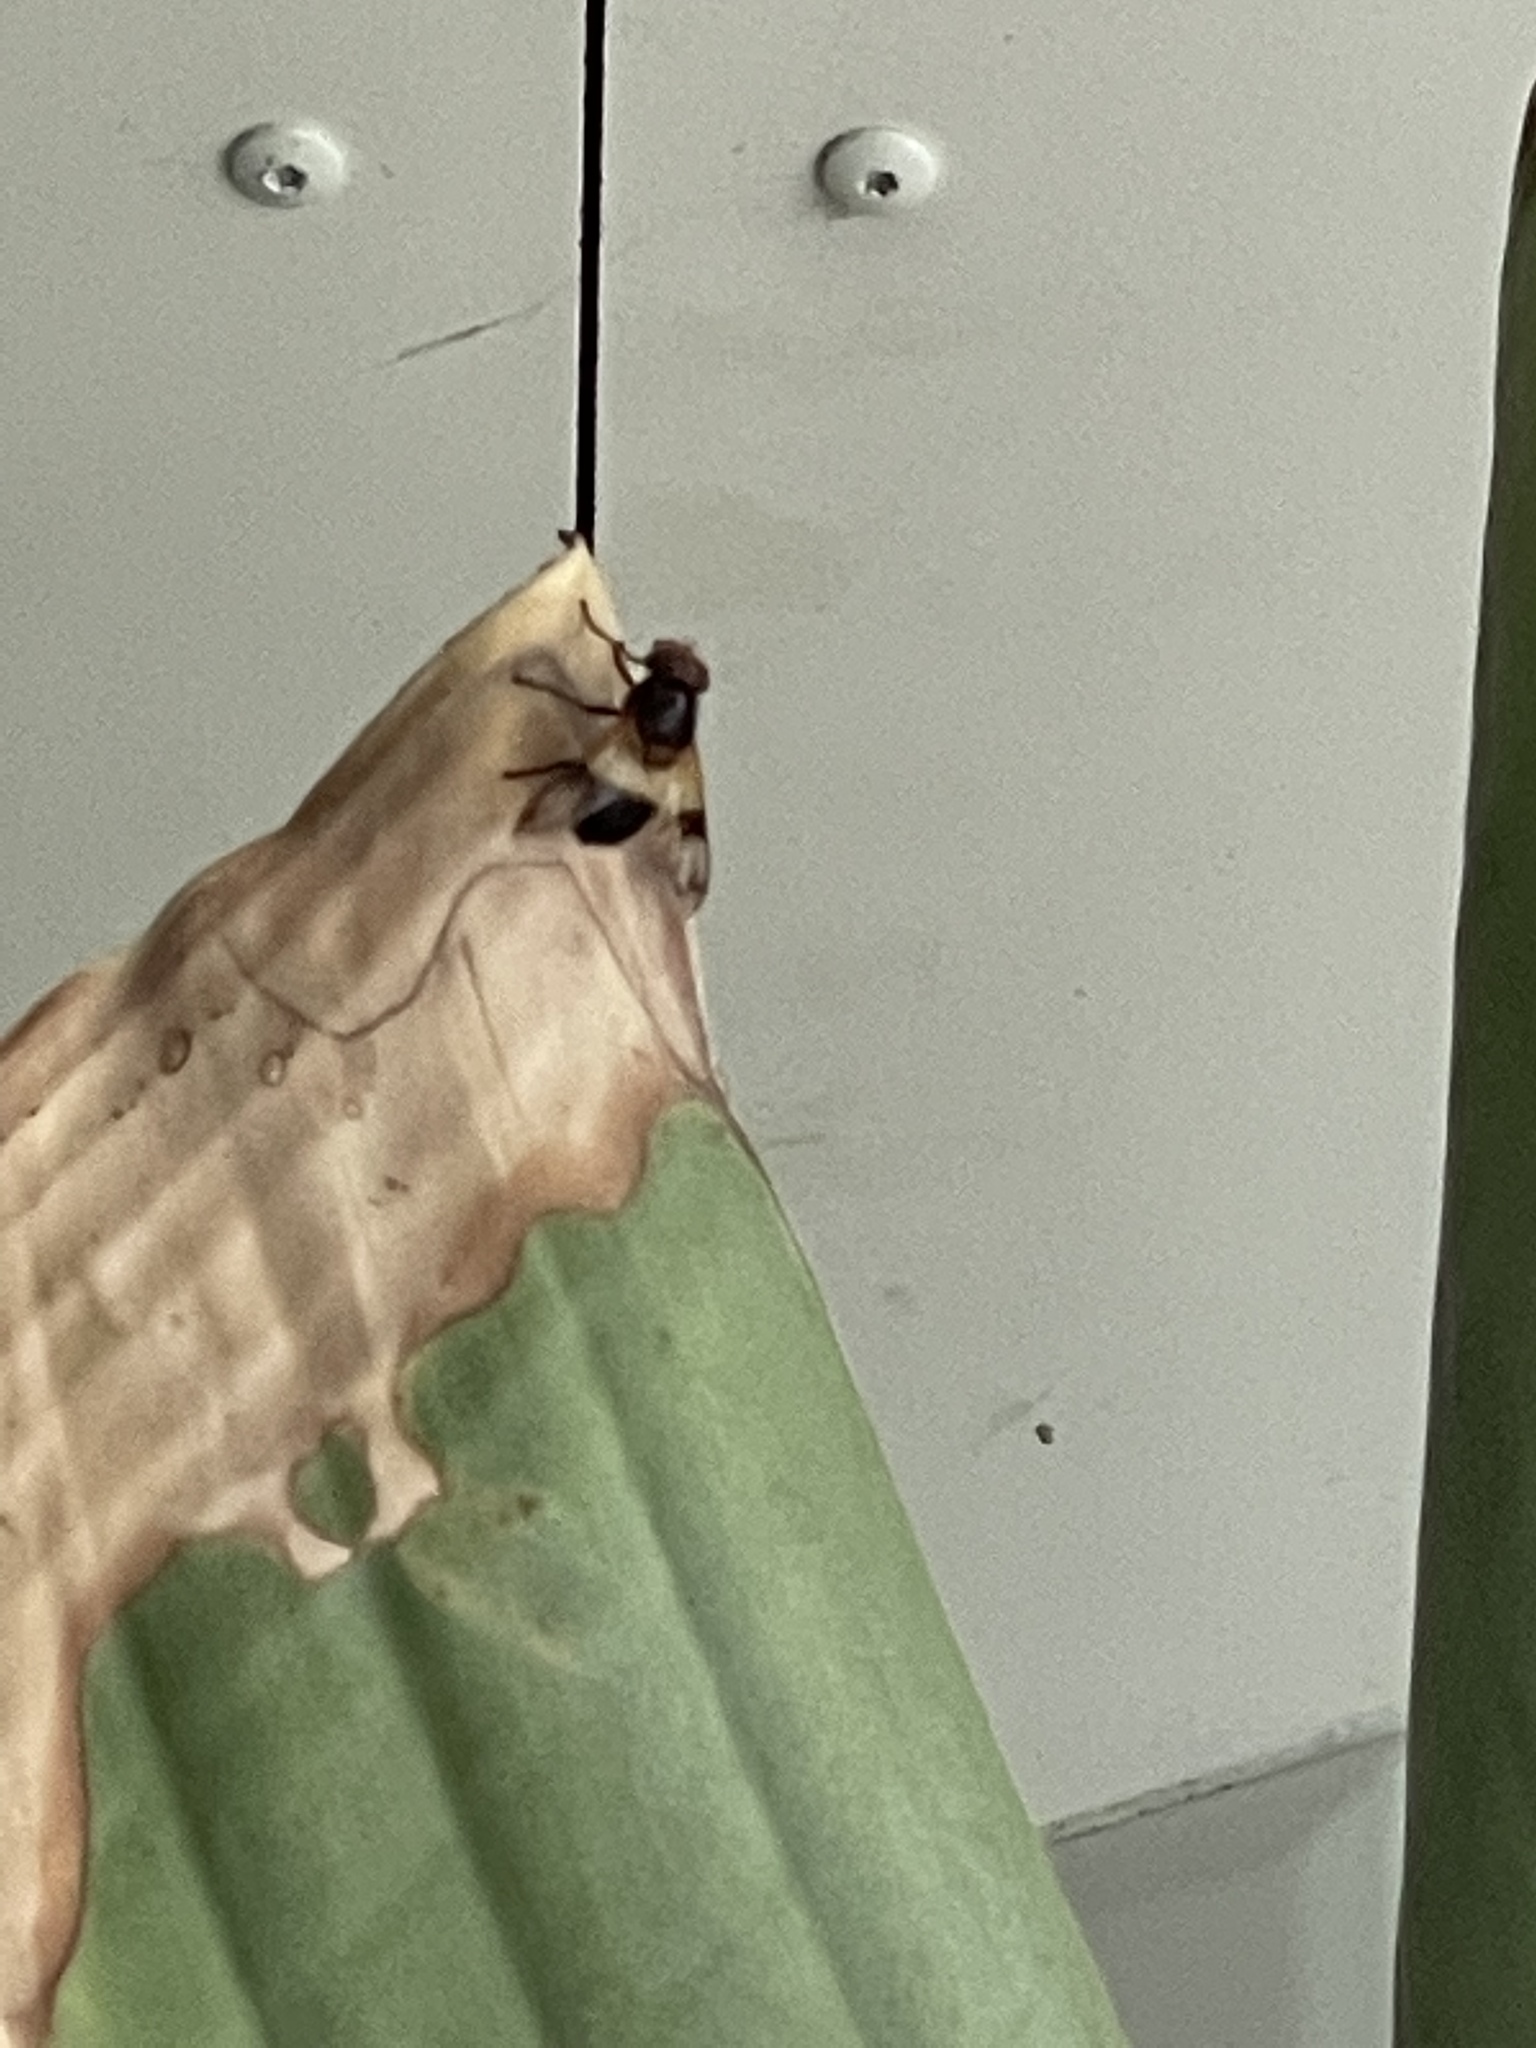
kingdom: Animalia
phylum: Arthropoda
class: Insecta
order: Diptera
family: Syrphidae
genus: Volucella
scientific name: Volucella pellucens
